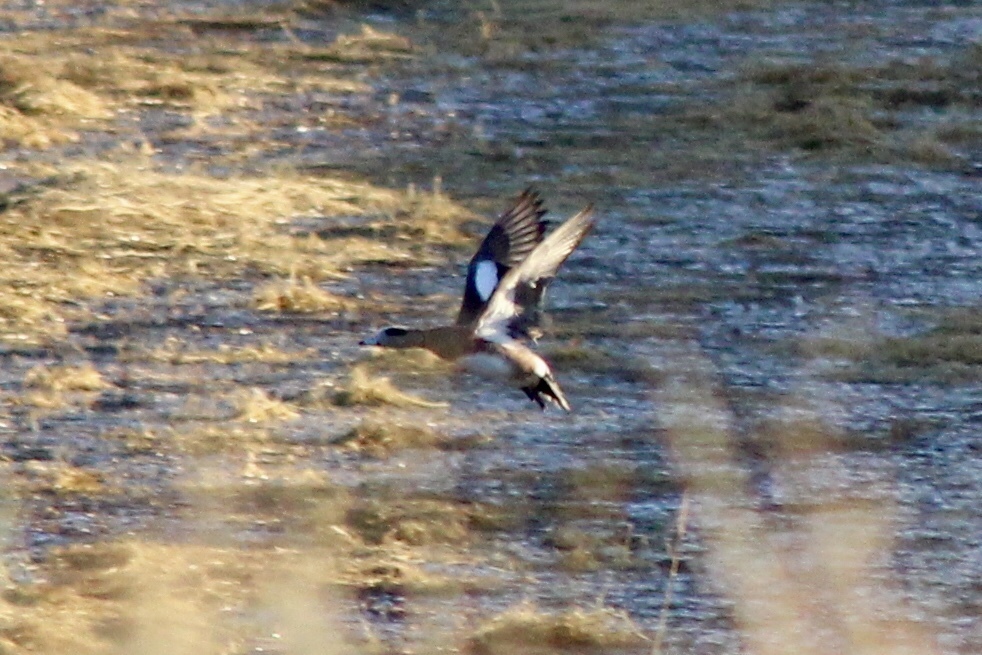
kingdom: Animalia
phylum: Chordata
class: Aves
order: Anseriformes
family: Anatidae
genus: Mareca
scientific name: Mareca americana
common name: American wigeon
